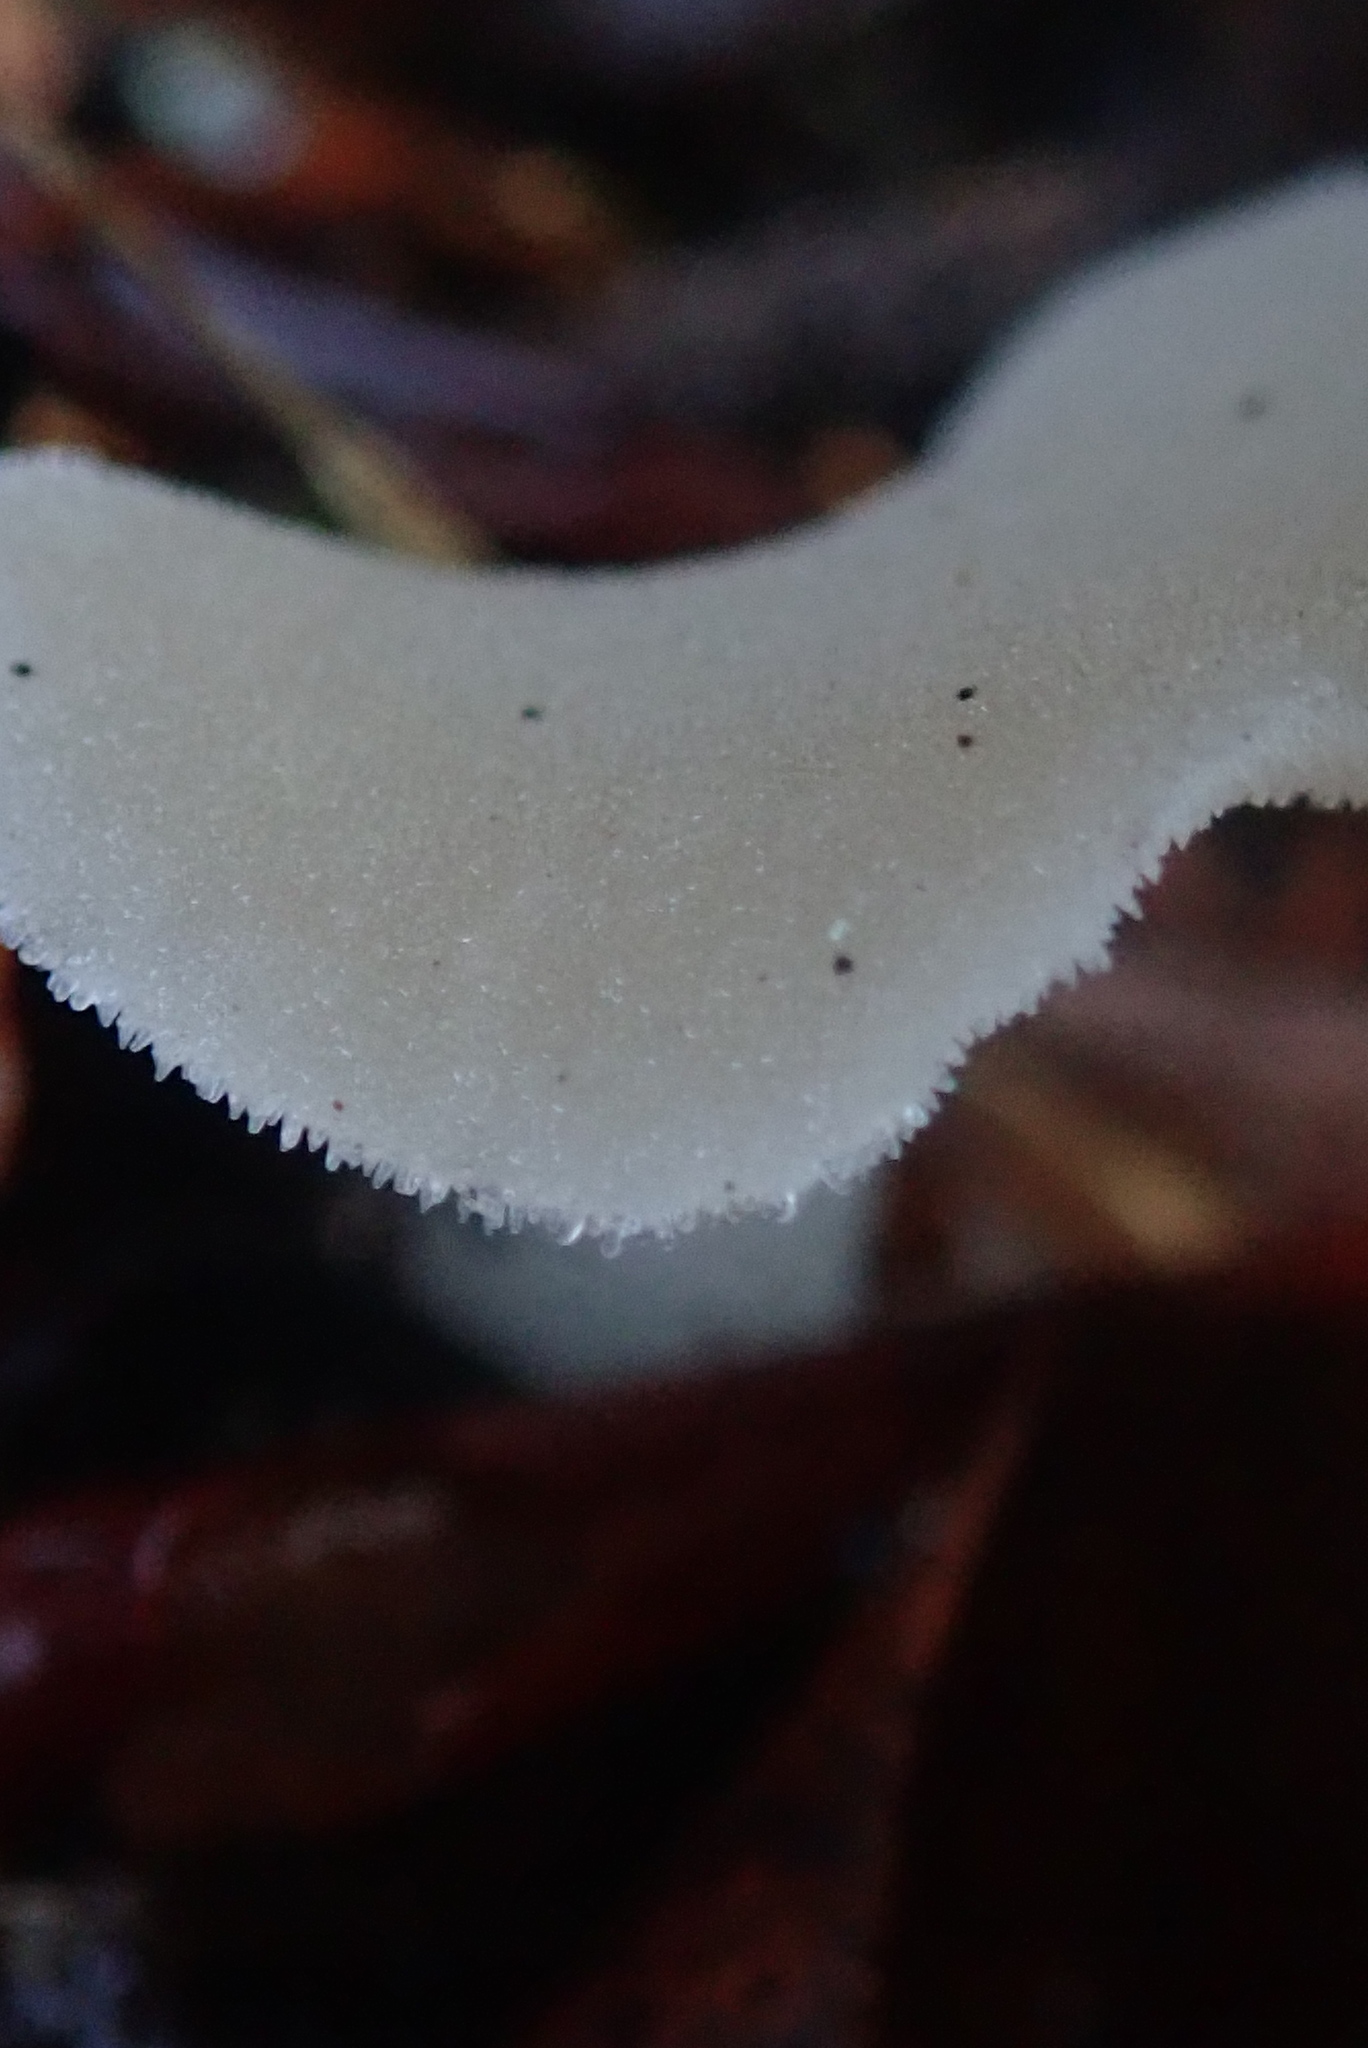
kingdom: Fungi
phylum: Basidiomycota
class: Agaricomycetes
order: Auriculariales
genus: Pseudohydnum
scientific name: Pseudohydnum gelatinosum
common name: Jelly tongue
